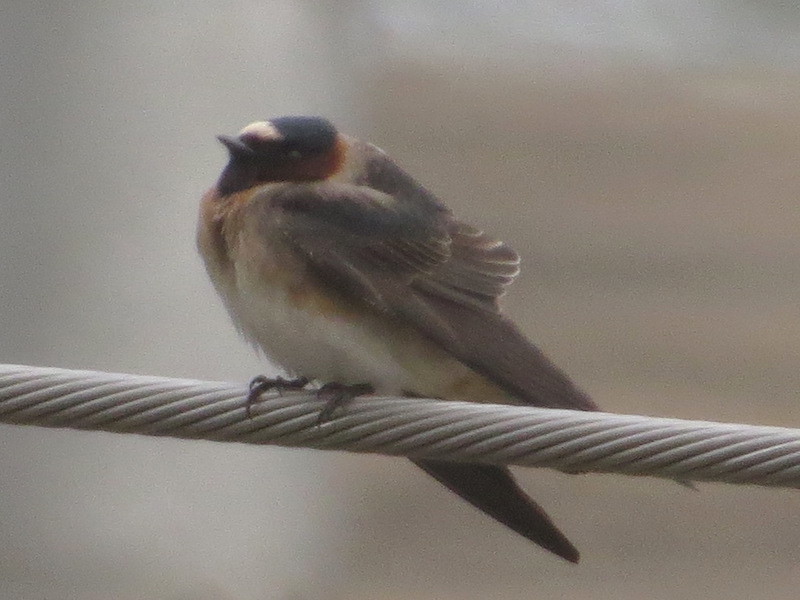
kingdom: Animalia
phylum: Chordata
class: Aves
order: Passeriformes
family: Hirundinidae
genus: Petrochelidon
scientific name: Petrochelidon pyrrhonota
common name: American cliff swallow
